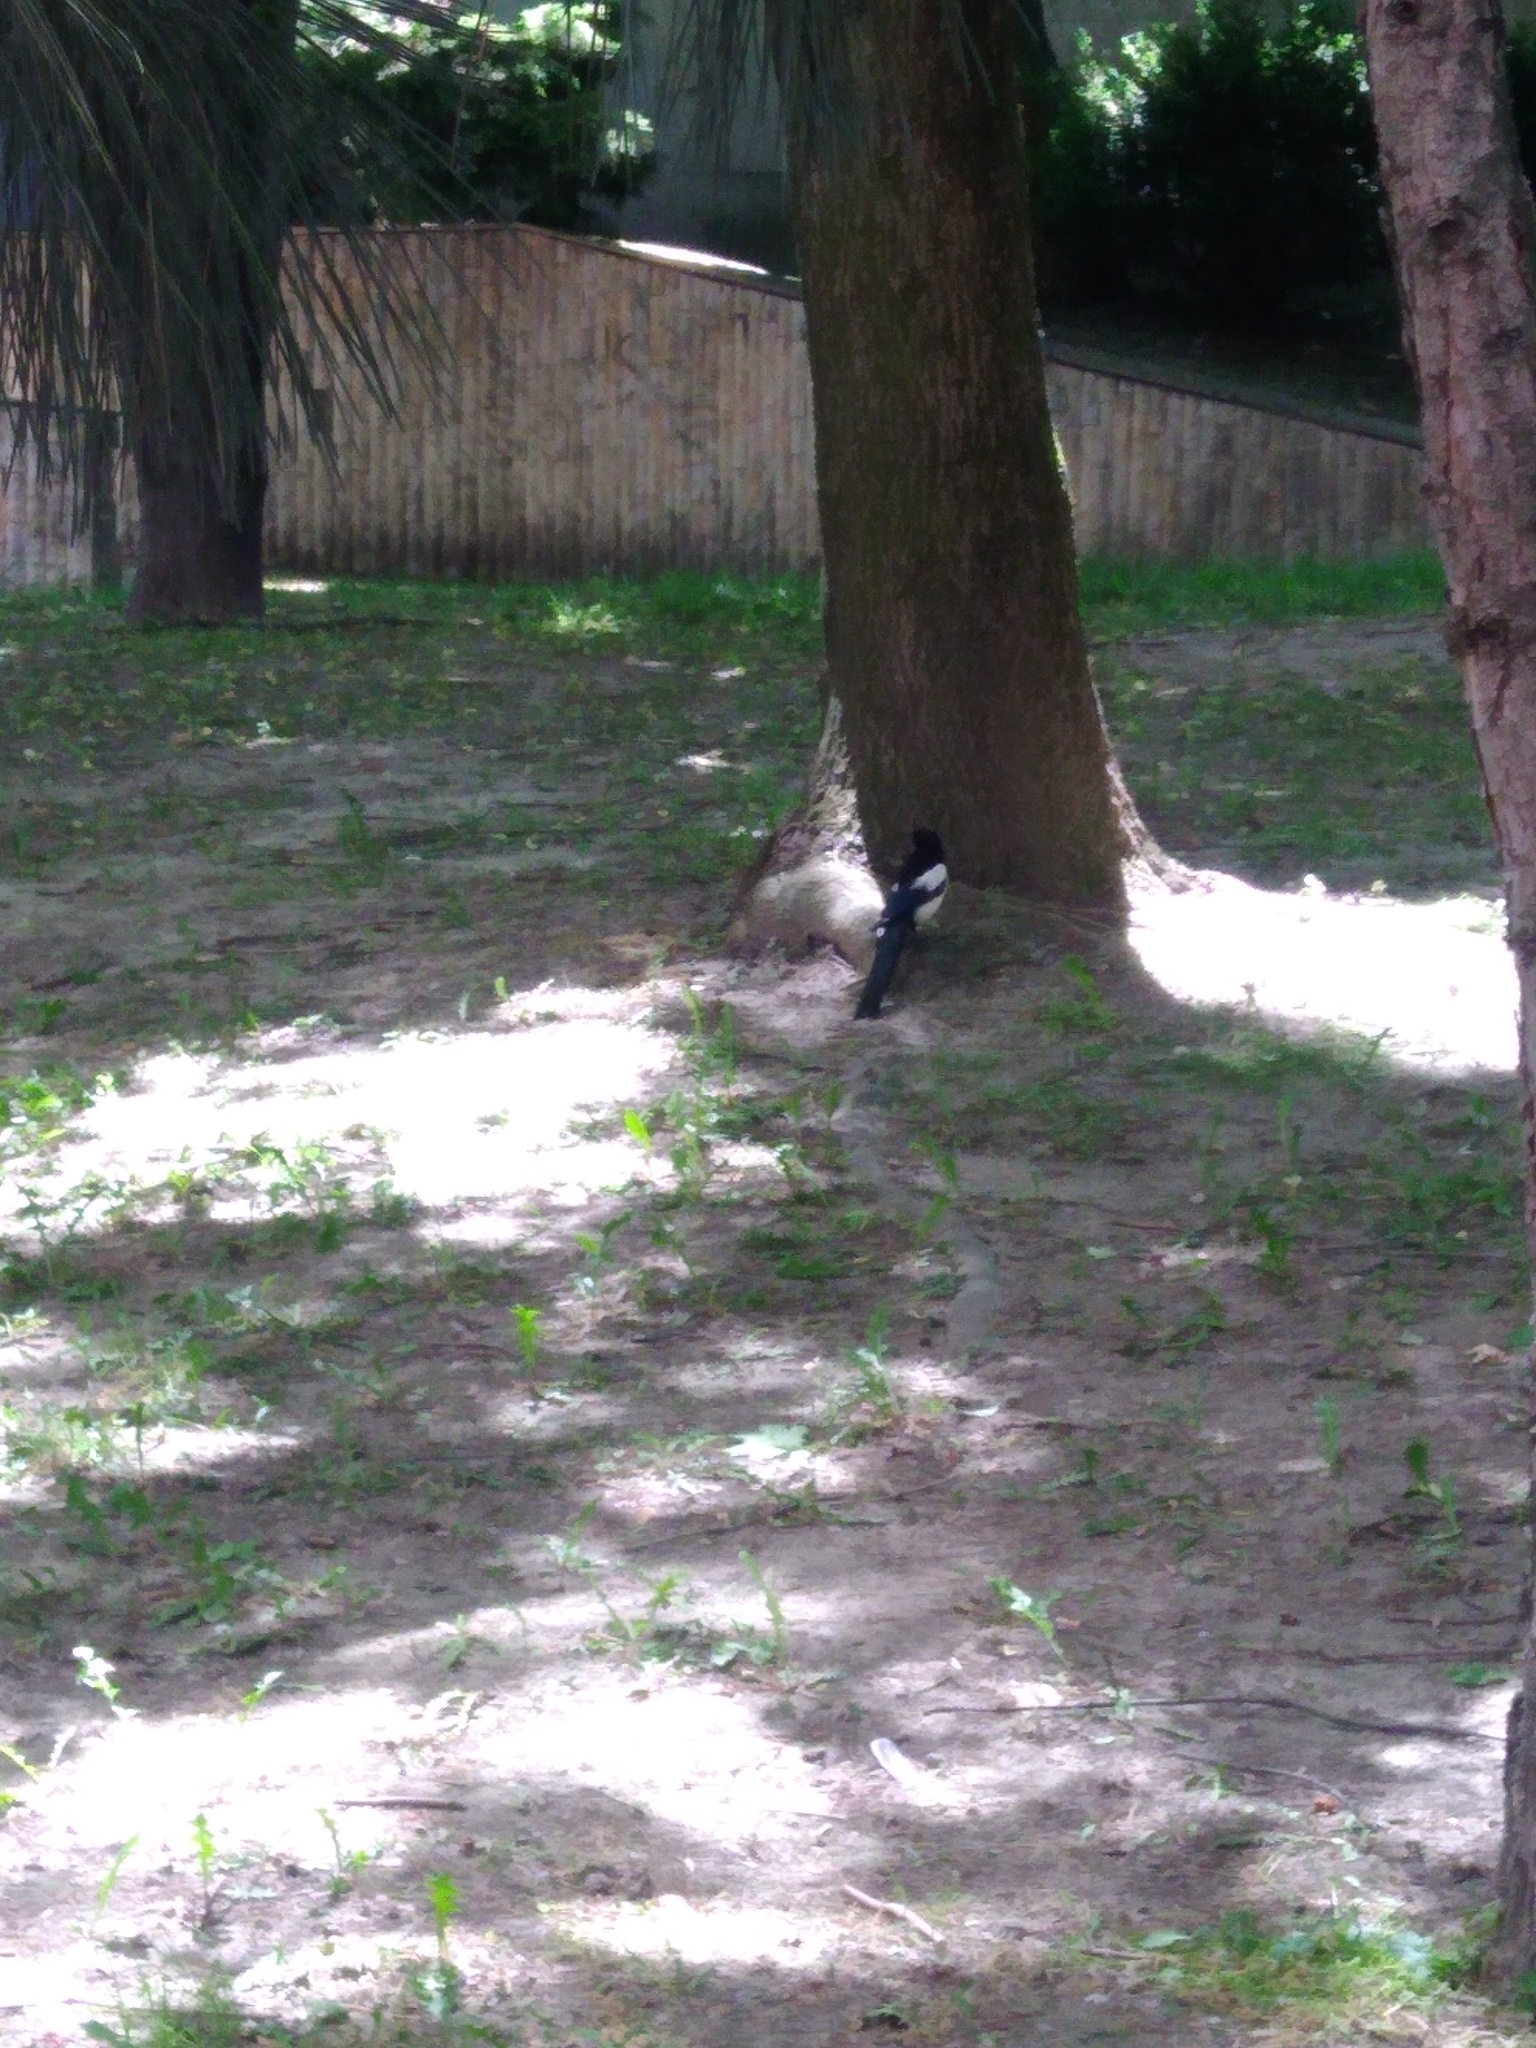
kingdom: Animalia
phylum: Chordata
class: Aves
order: Passeriformes
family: Corvidae
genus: Pica
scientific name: Pica pica
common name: Eurasian magpie
